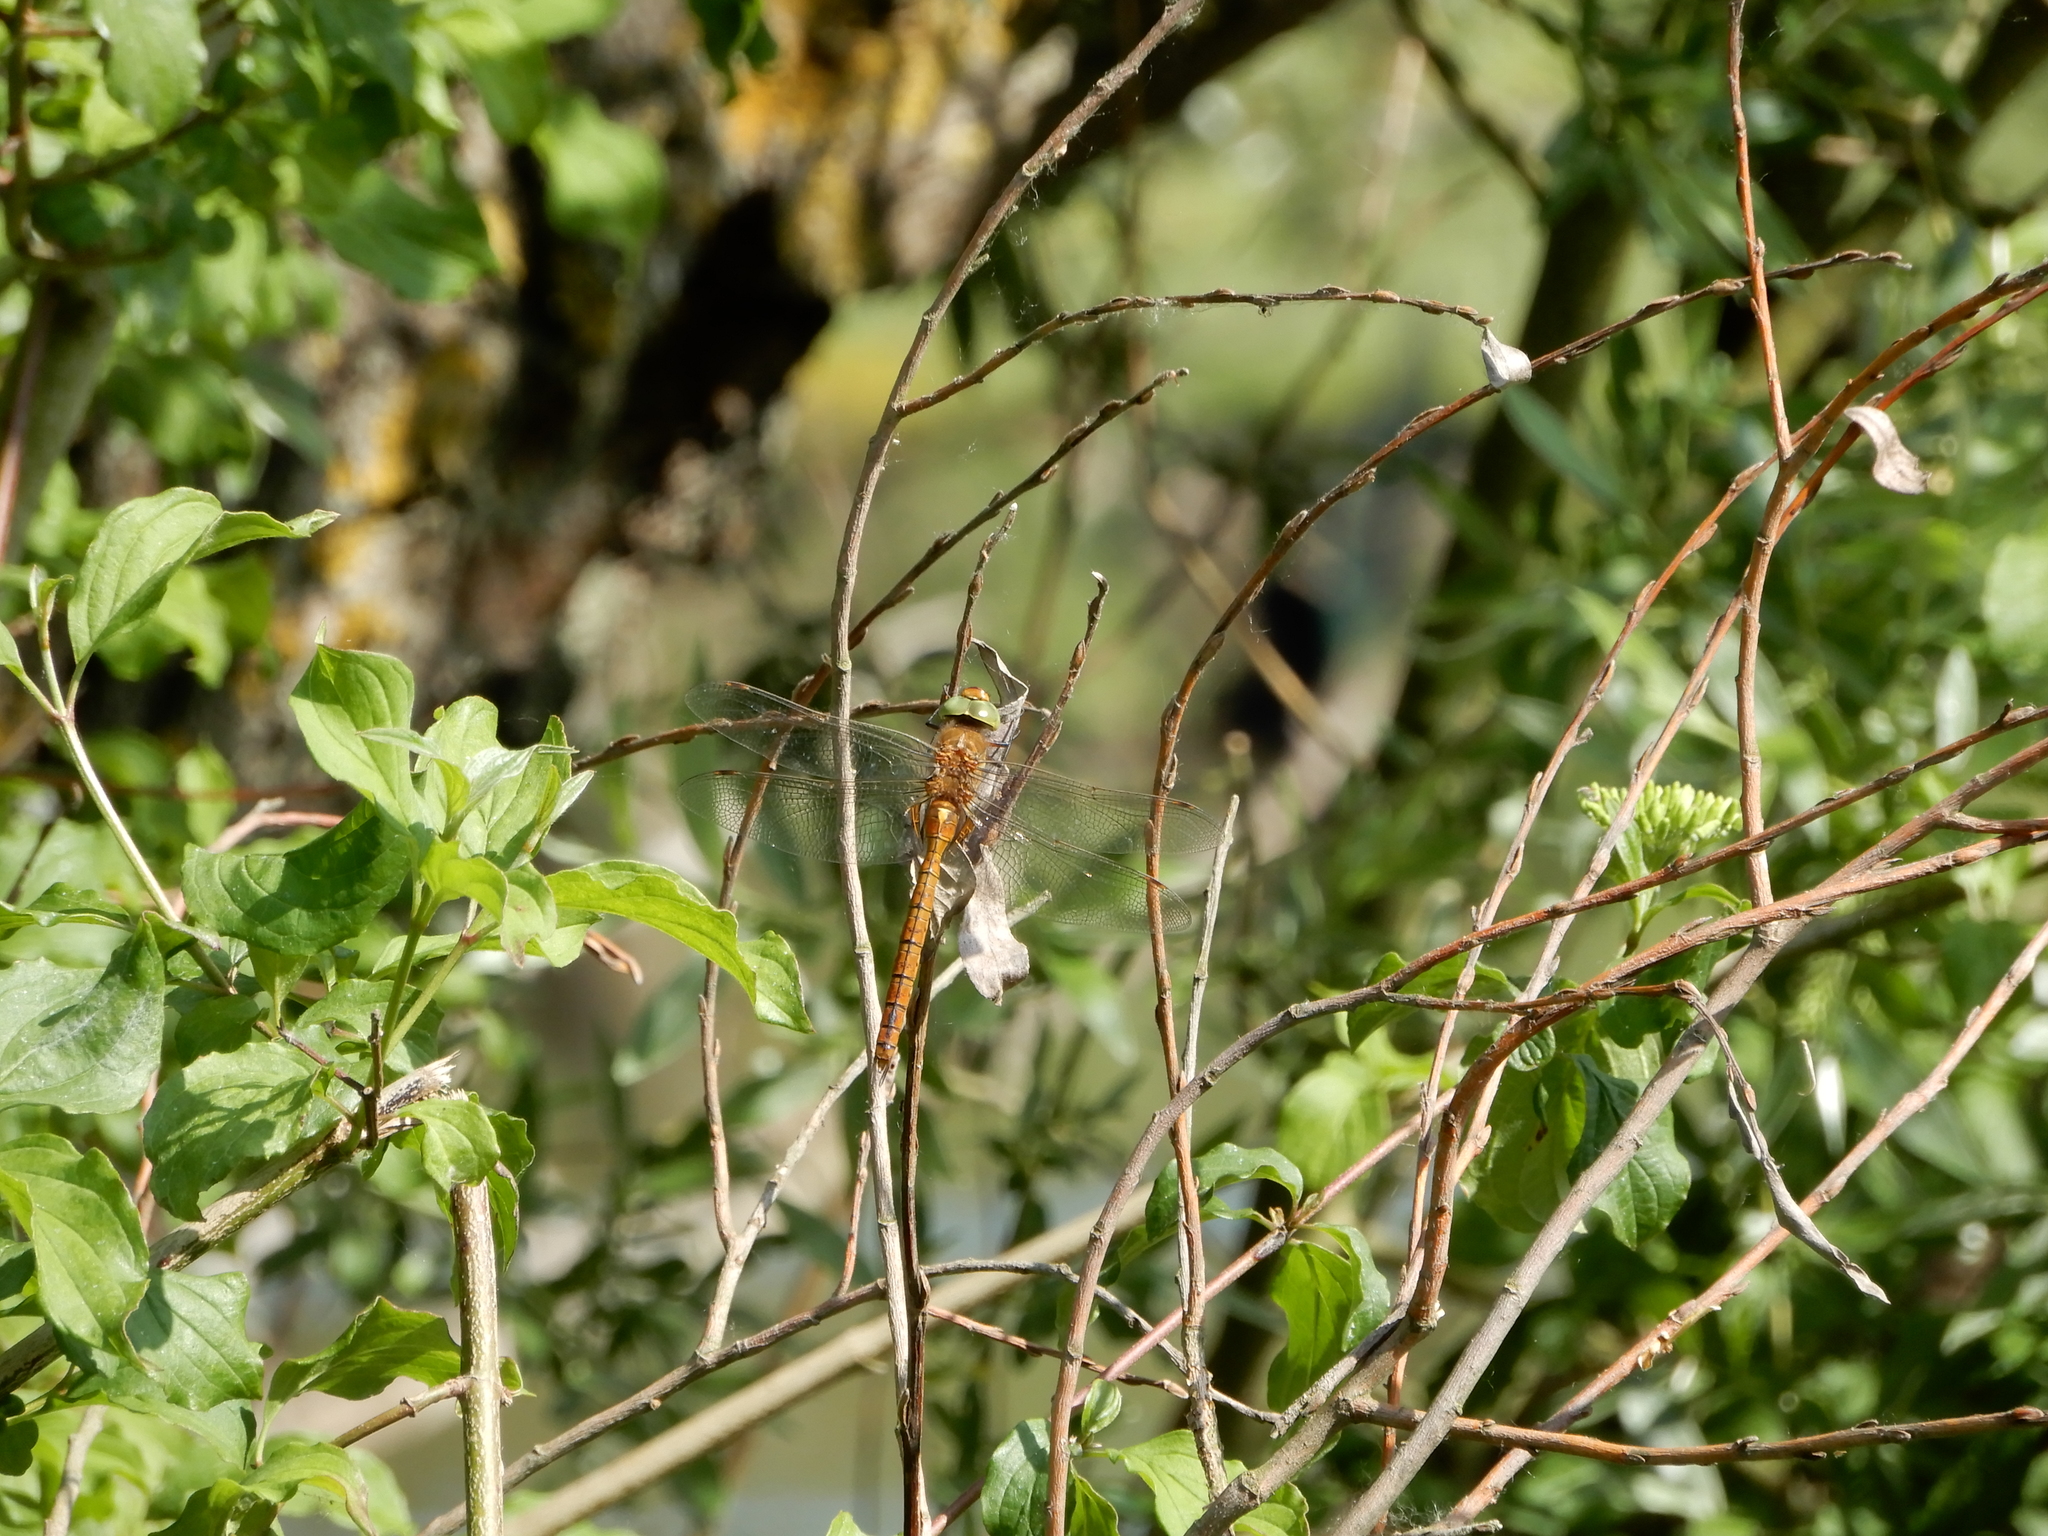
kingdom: Animalia
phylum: Arthropoda
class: Insecta
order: Odonata
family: Aeshnidae
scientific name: Aeshnidae
